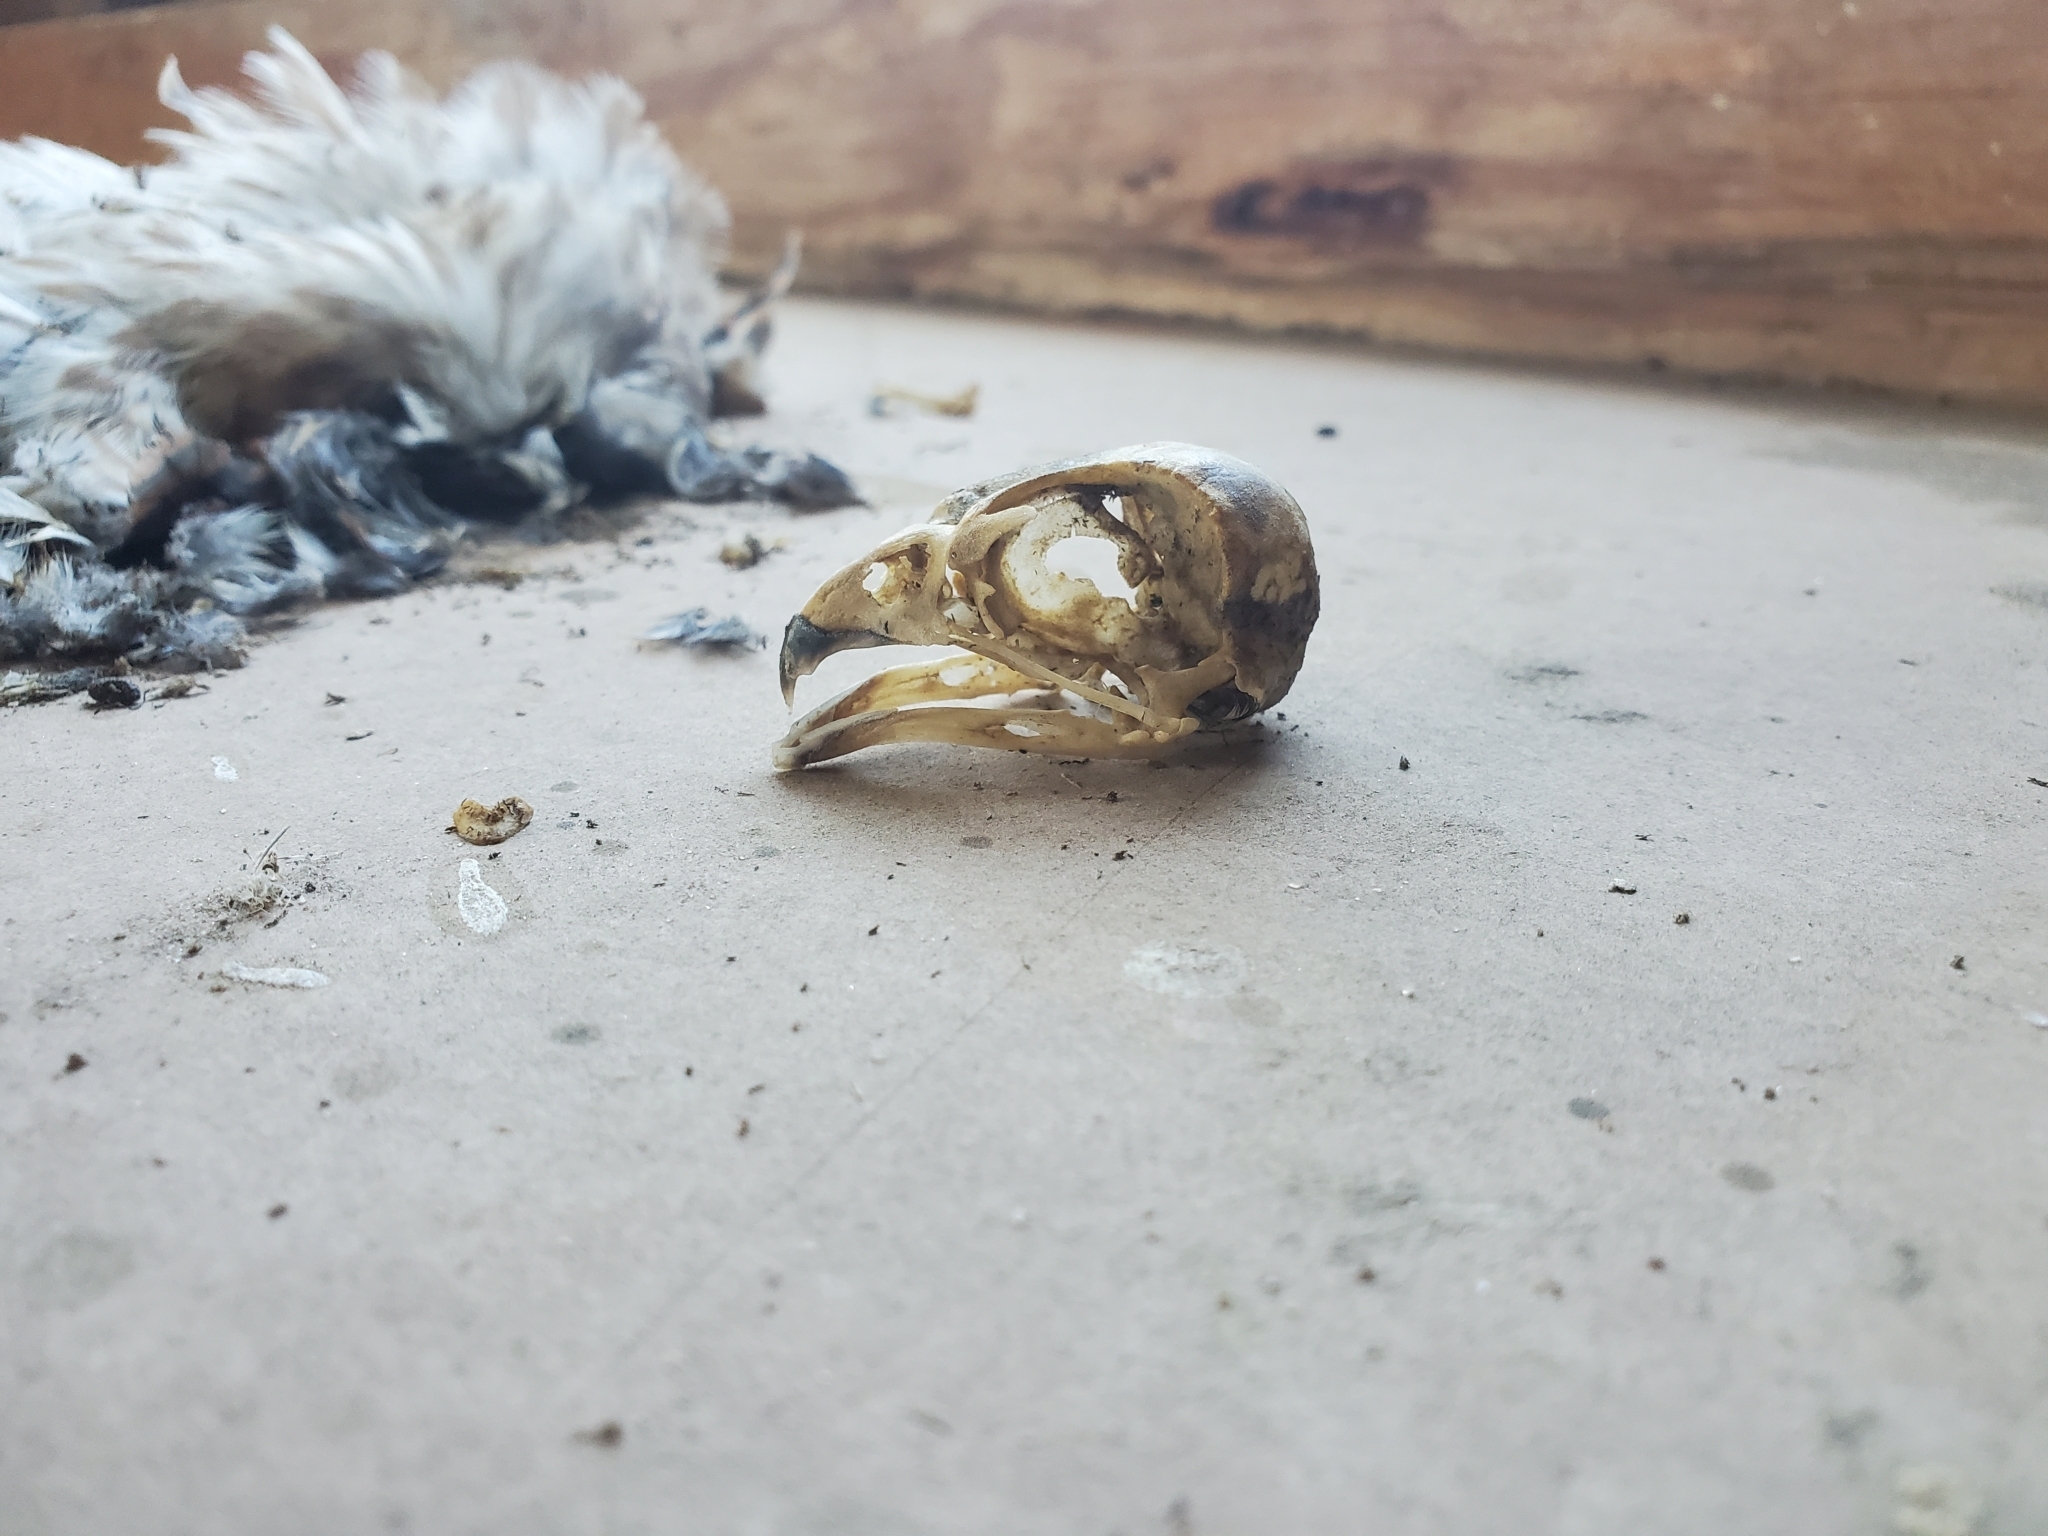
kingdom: Animalia
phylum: Chordata
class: Aves
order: Falconiformes
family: Falconidae
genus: Falco
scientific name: Falco sparverius
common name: American kestrel
